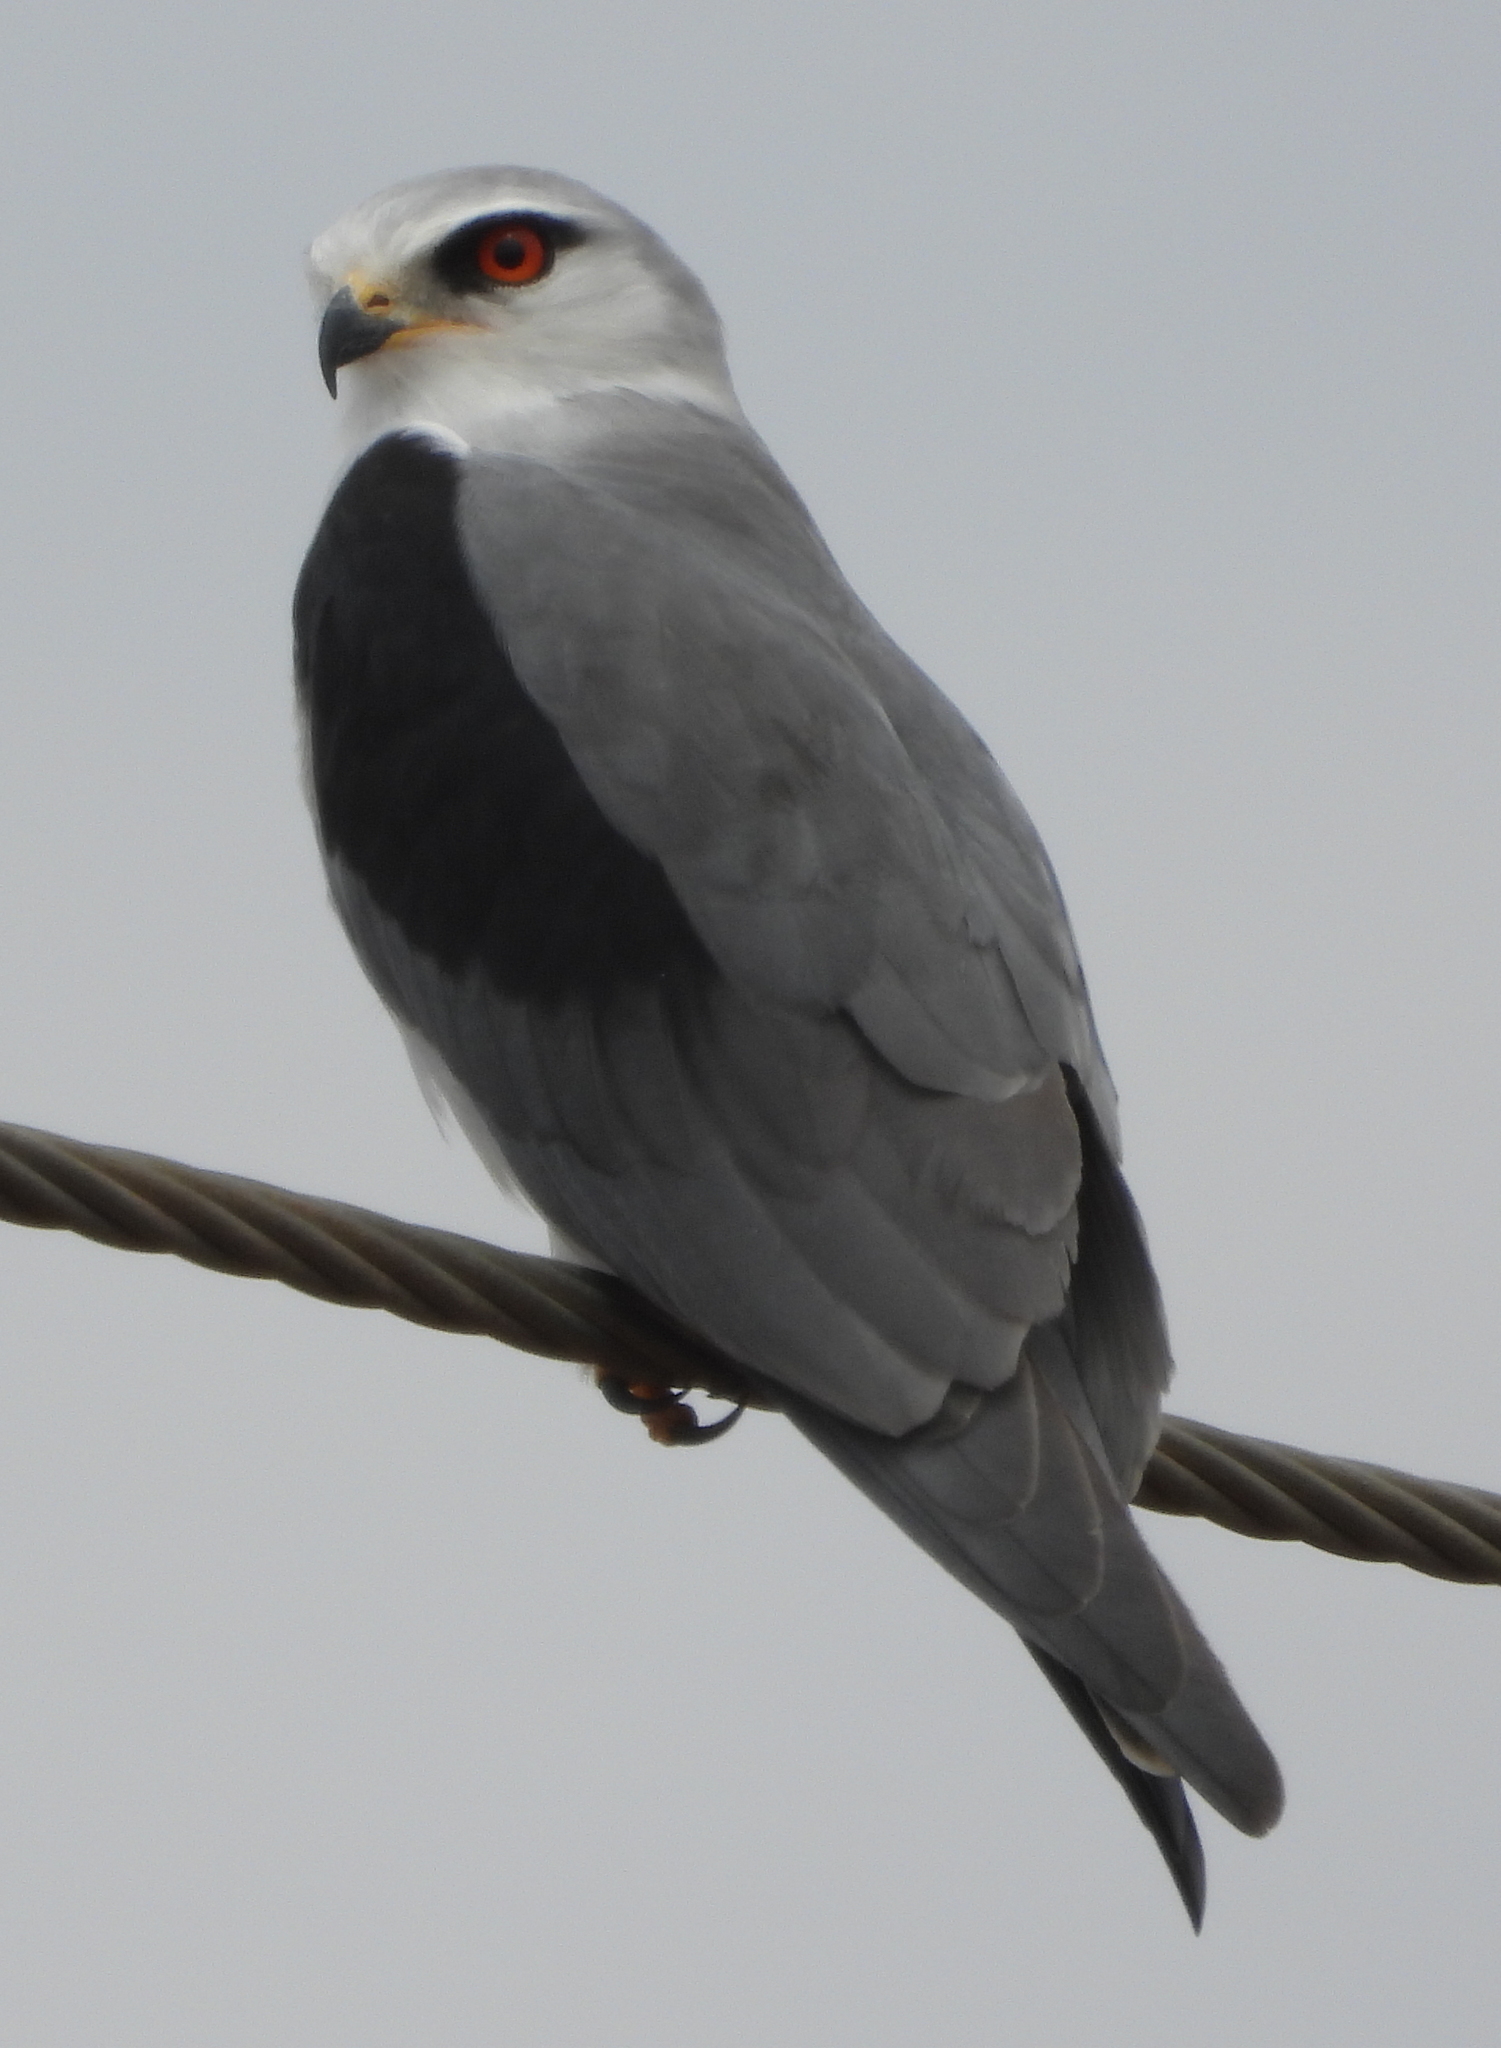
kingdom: Animalia
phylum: Chordata
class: Aves
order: Accipitriformes
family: Accipitridae
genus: Elanus
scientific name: Elanus caeruleus
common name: Black-winged kite
